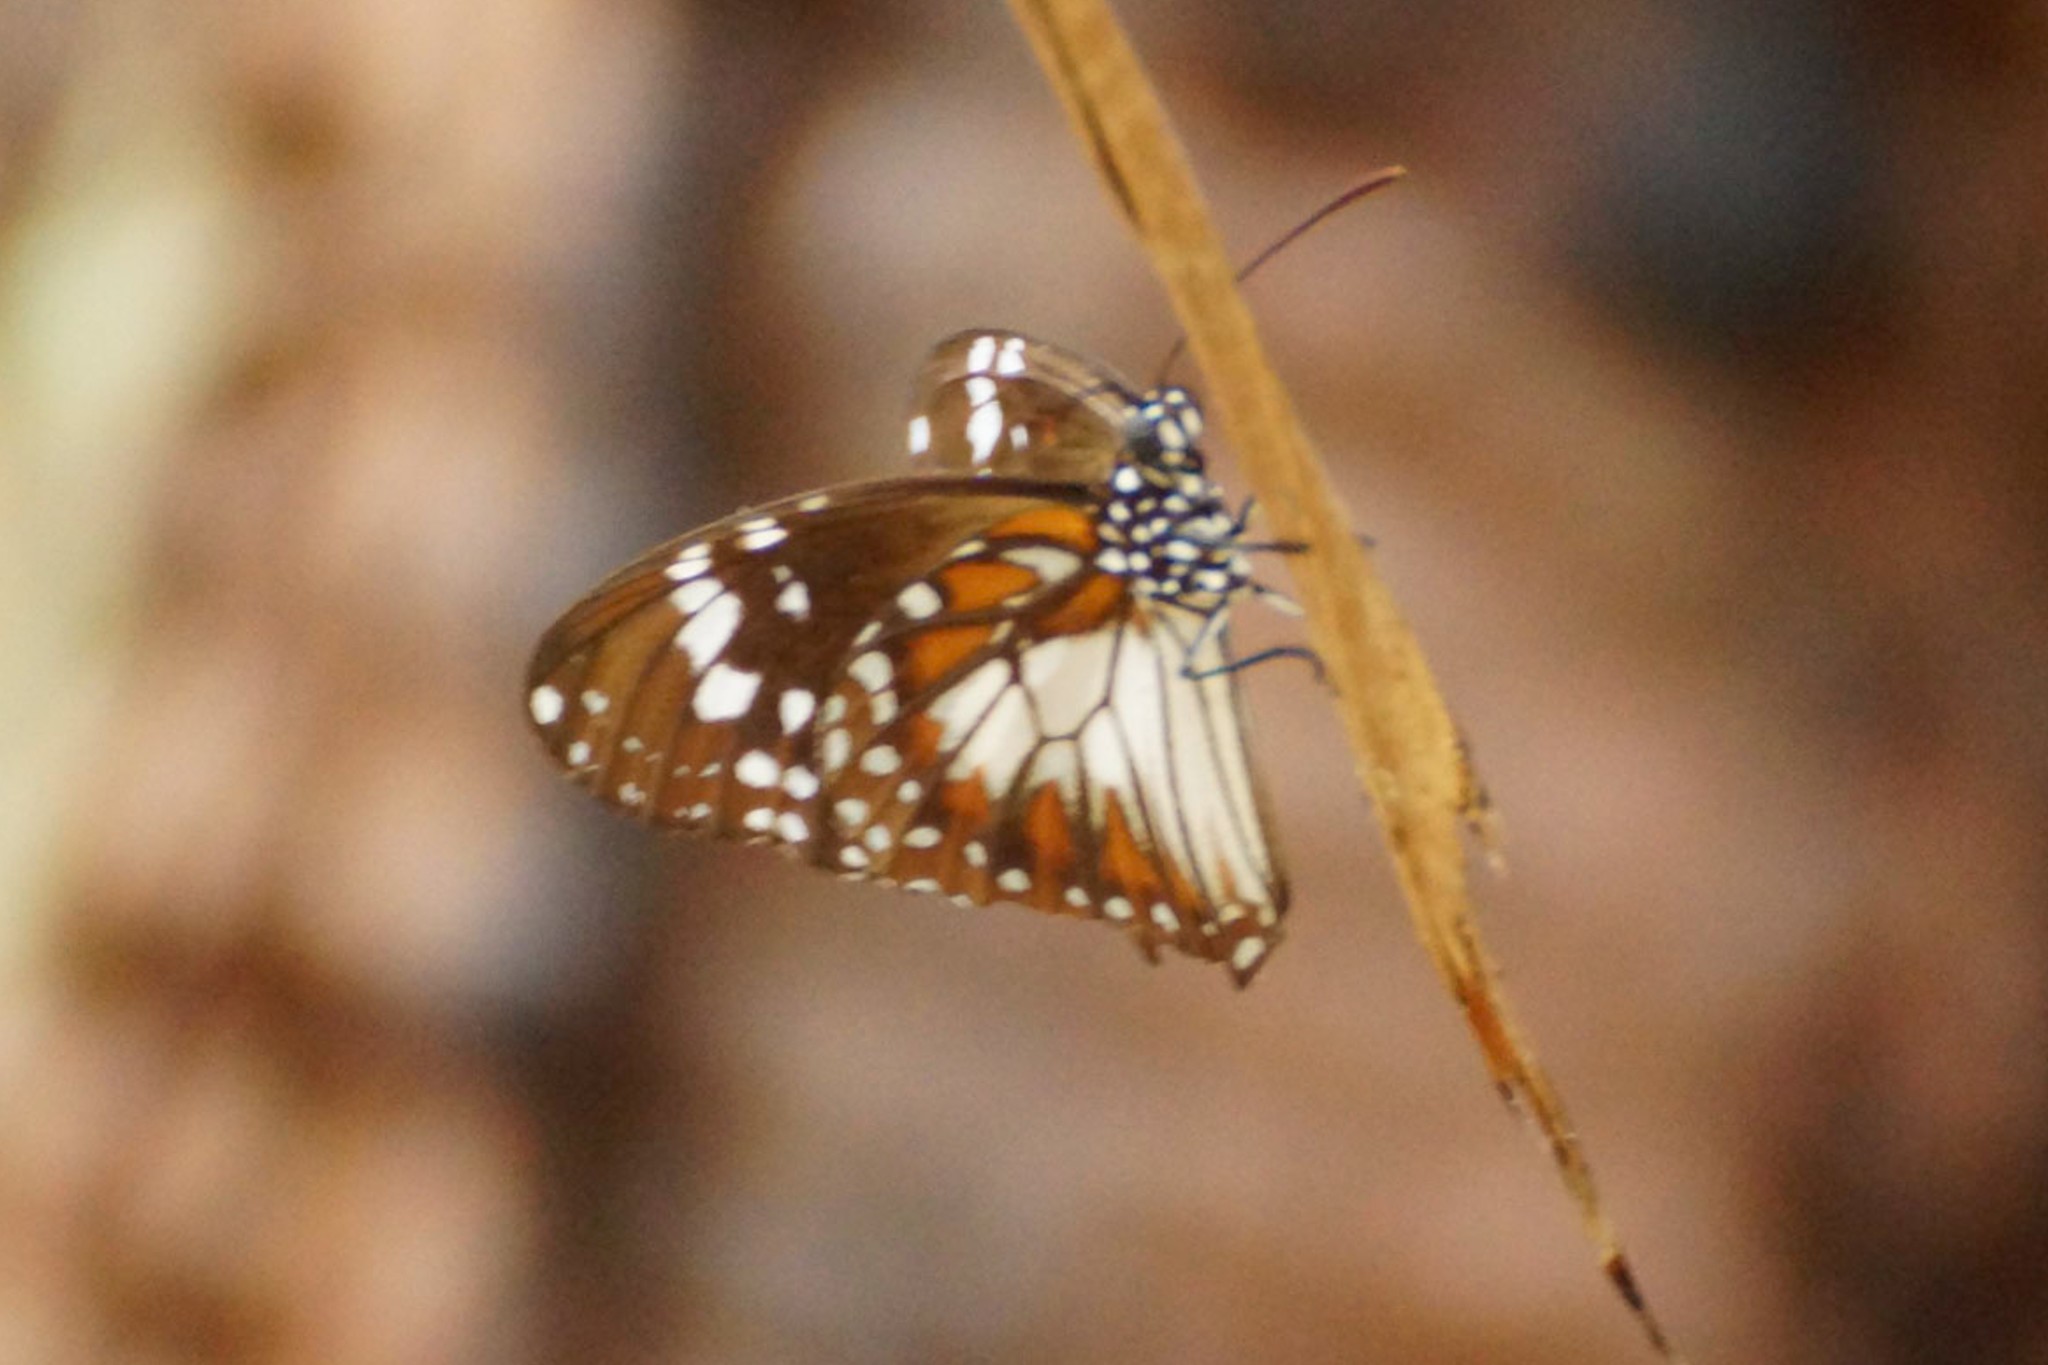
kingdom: Animalia
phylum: Arthropoda
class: Insecta
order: Lepidoptera
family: Nymphalidae
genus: Danaus
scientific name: Danaus affinis
